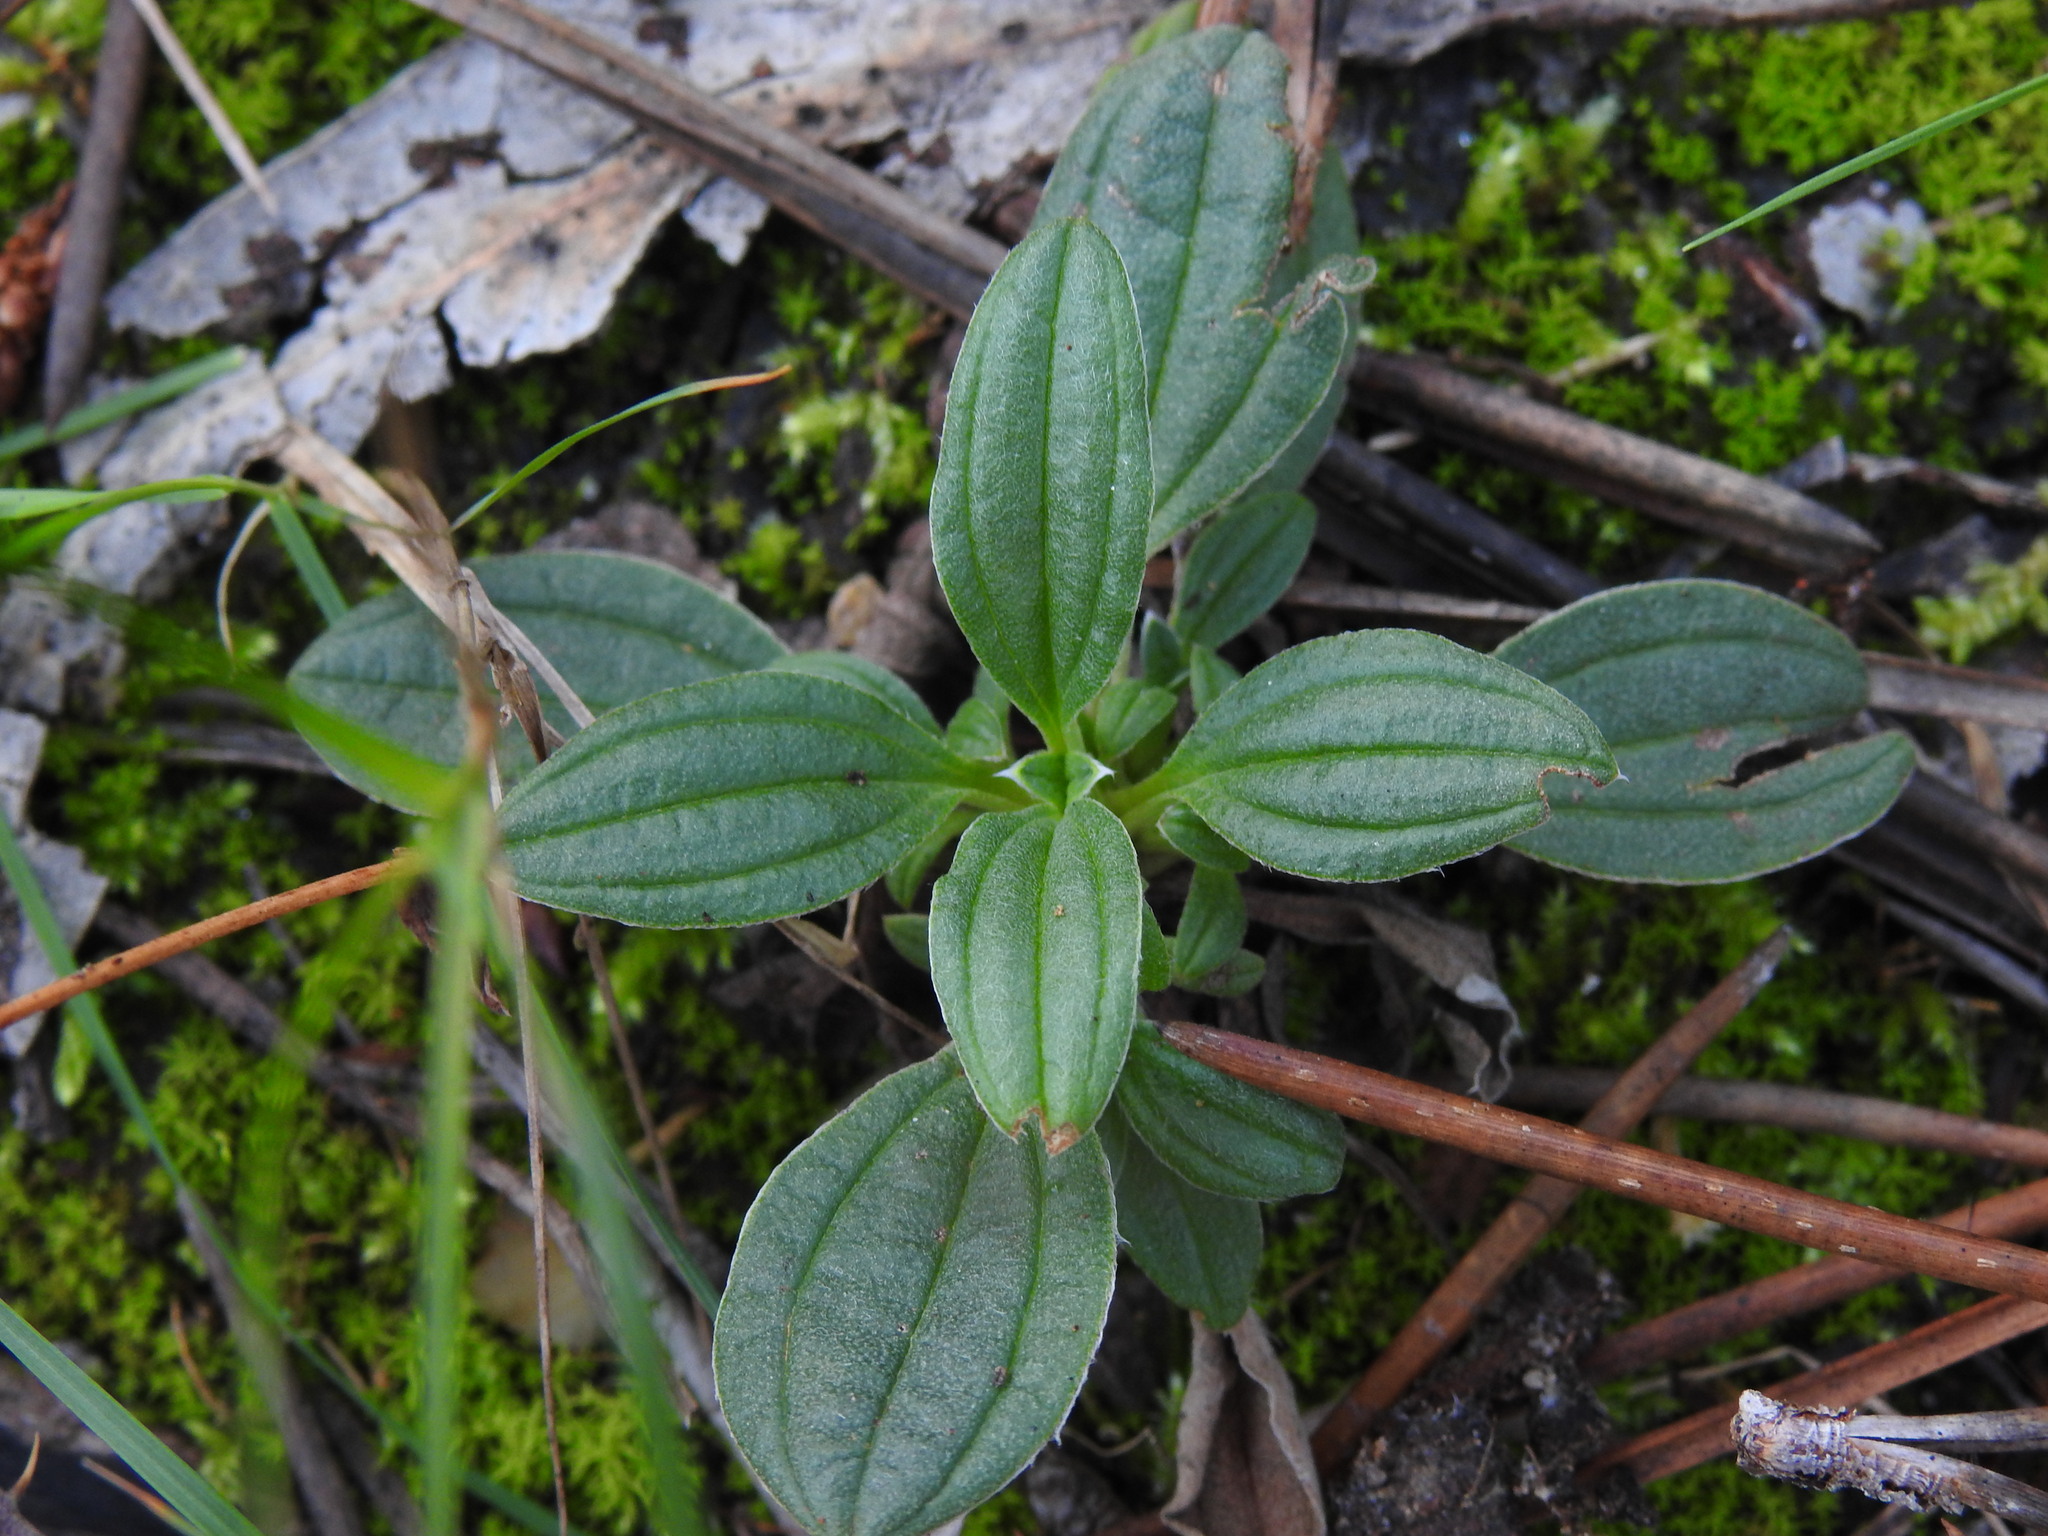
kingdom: Plantae
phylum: Tracheophyta
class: Magnoliopsida
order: Malvales
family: Cistaceae
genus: Tuberaria
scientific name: Tuberaria lignosa
